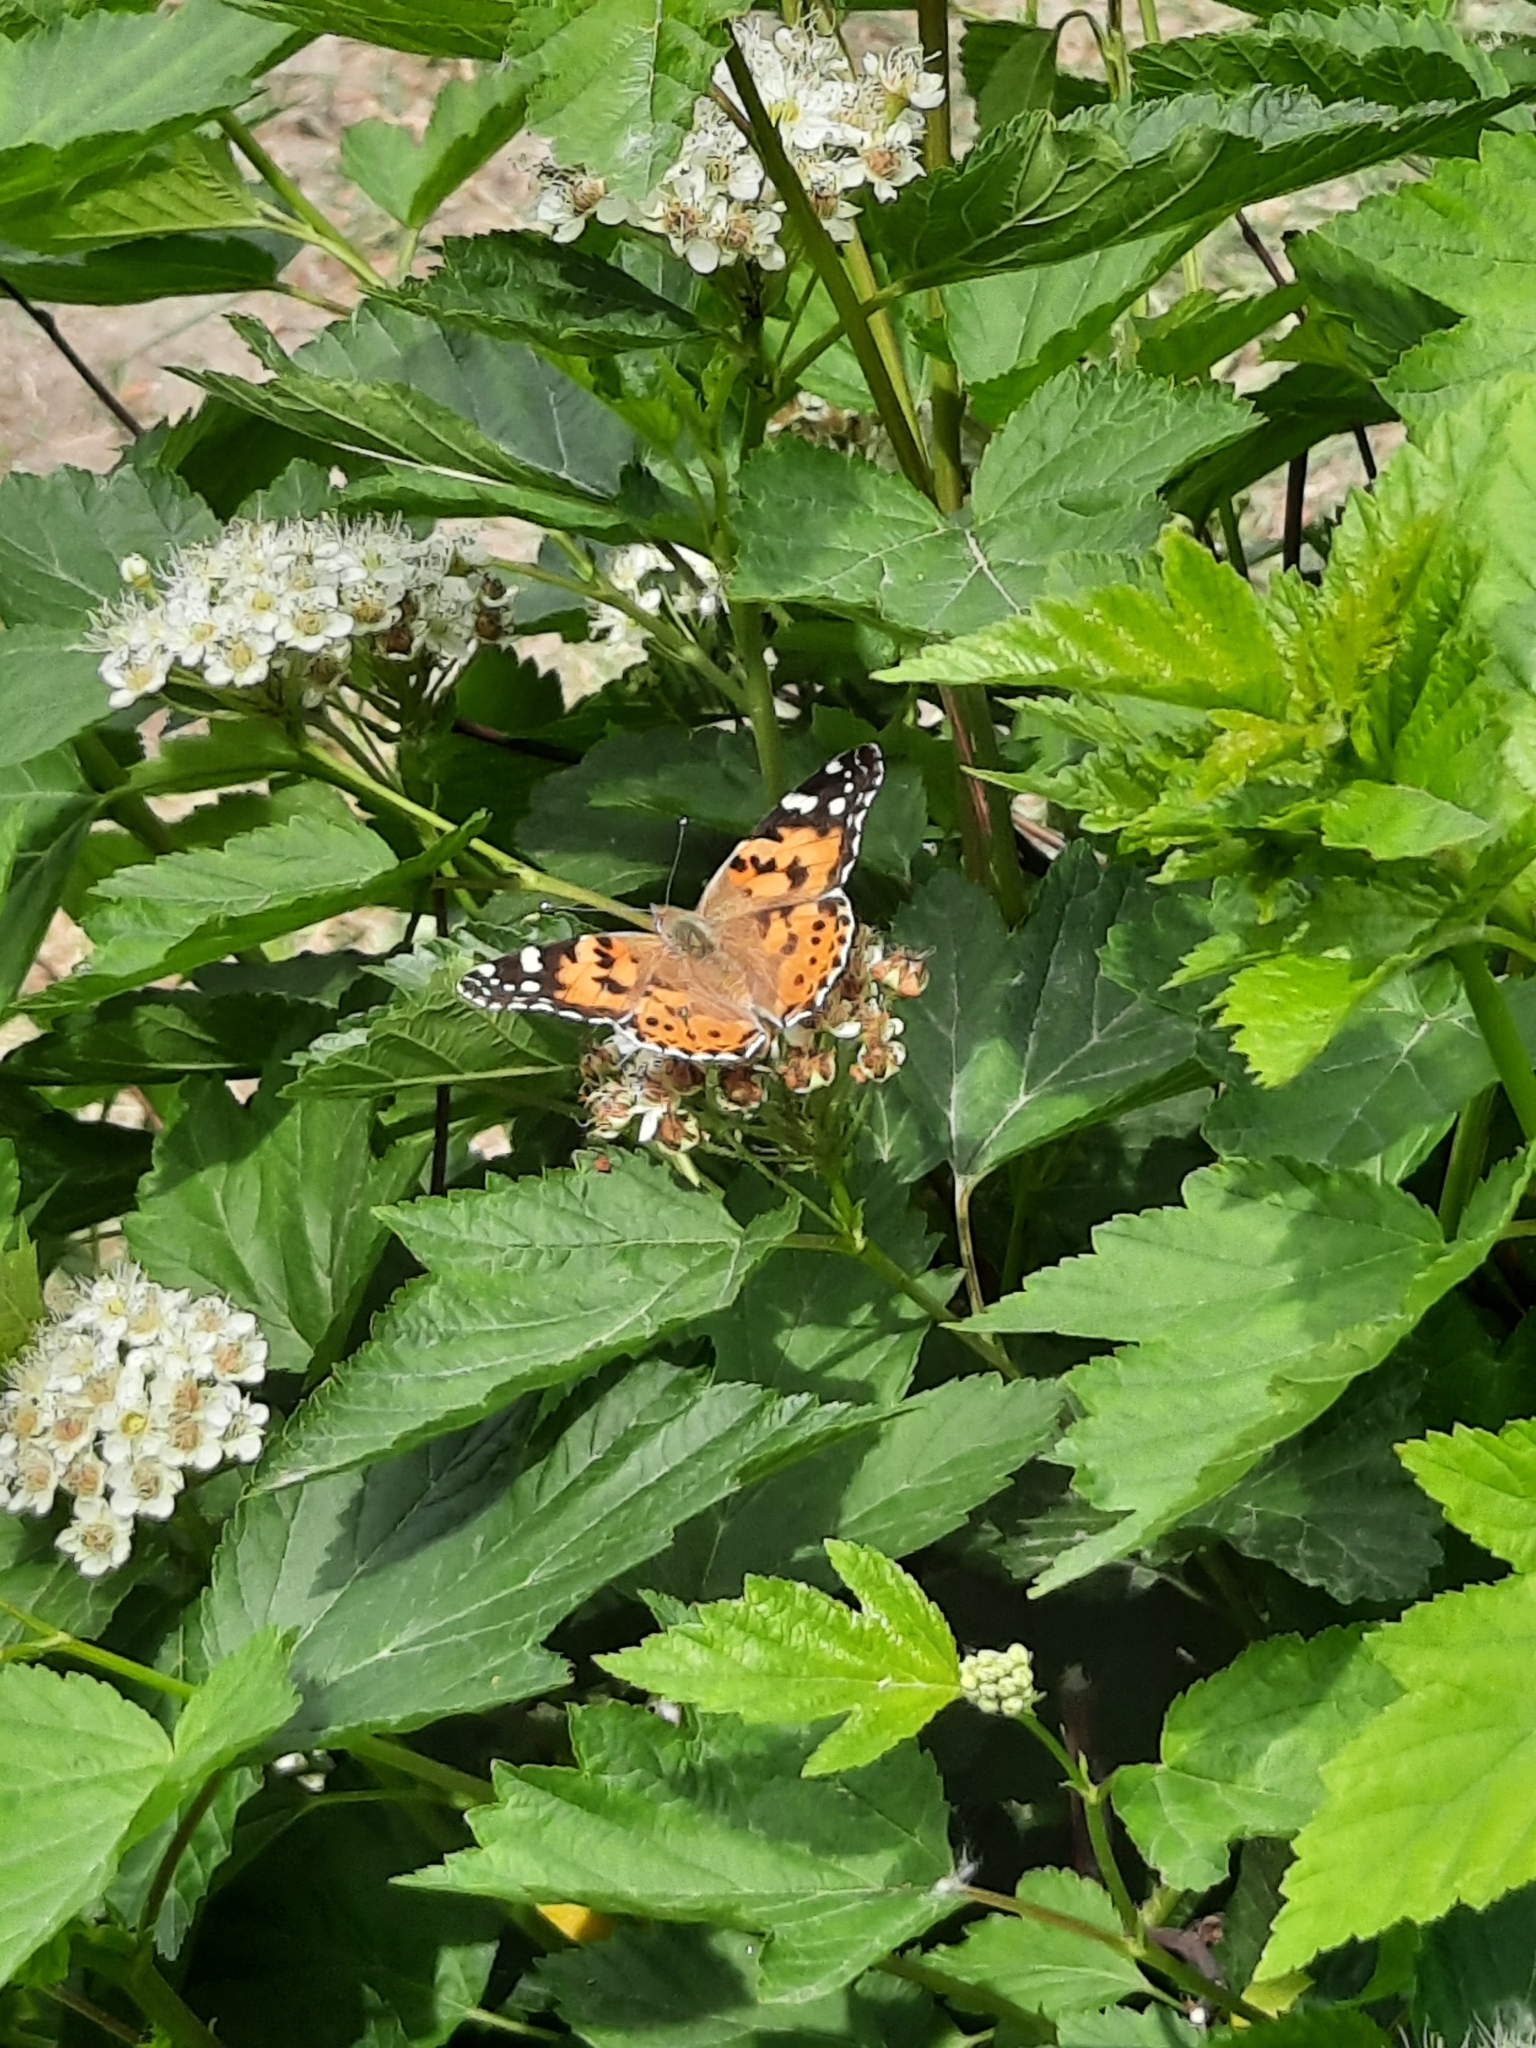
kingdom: Animalia
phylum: Arthropoda
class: Insecta
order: Lepidoptera
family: Nymphalidae
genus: Vanessa
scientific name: Vanessa cardui
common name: Painted lady
